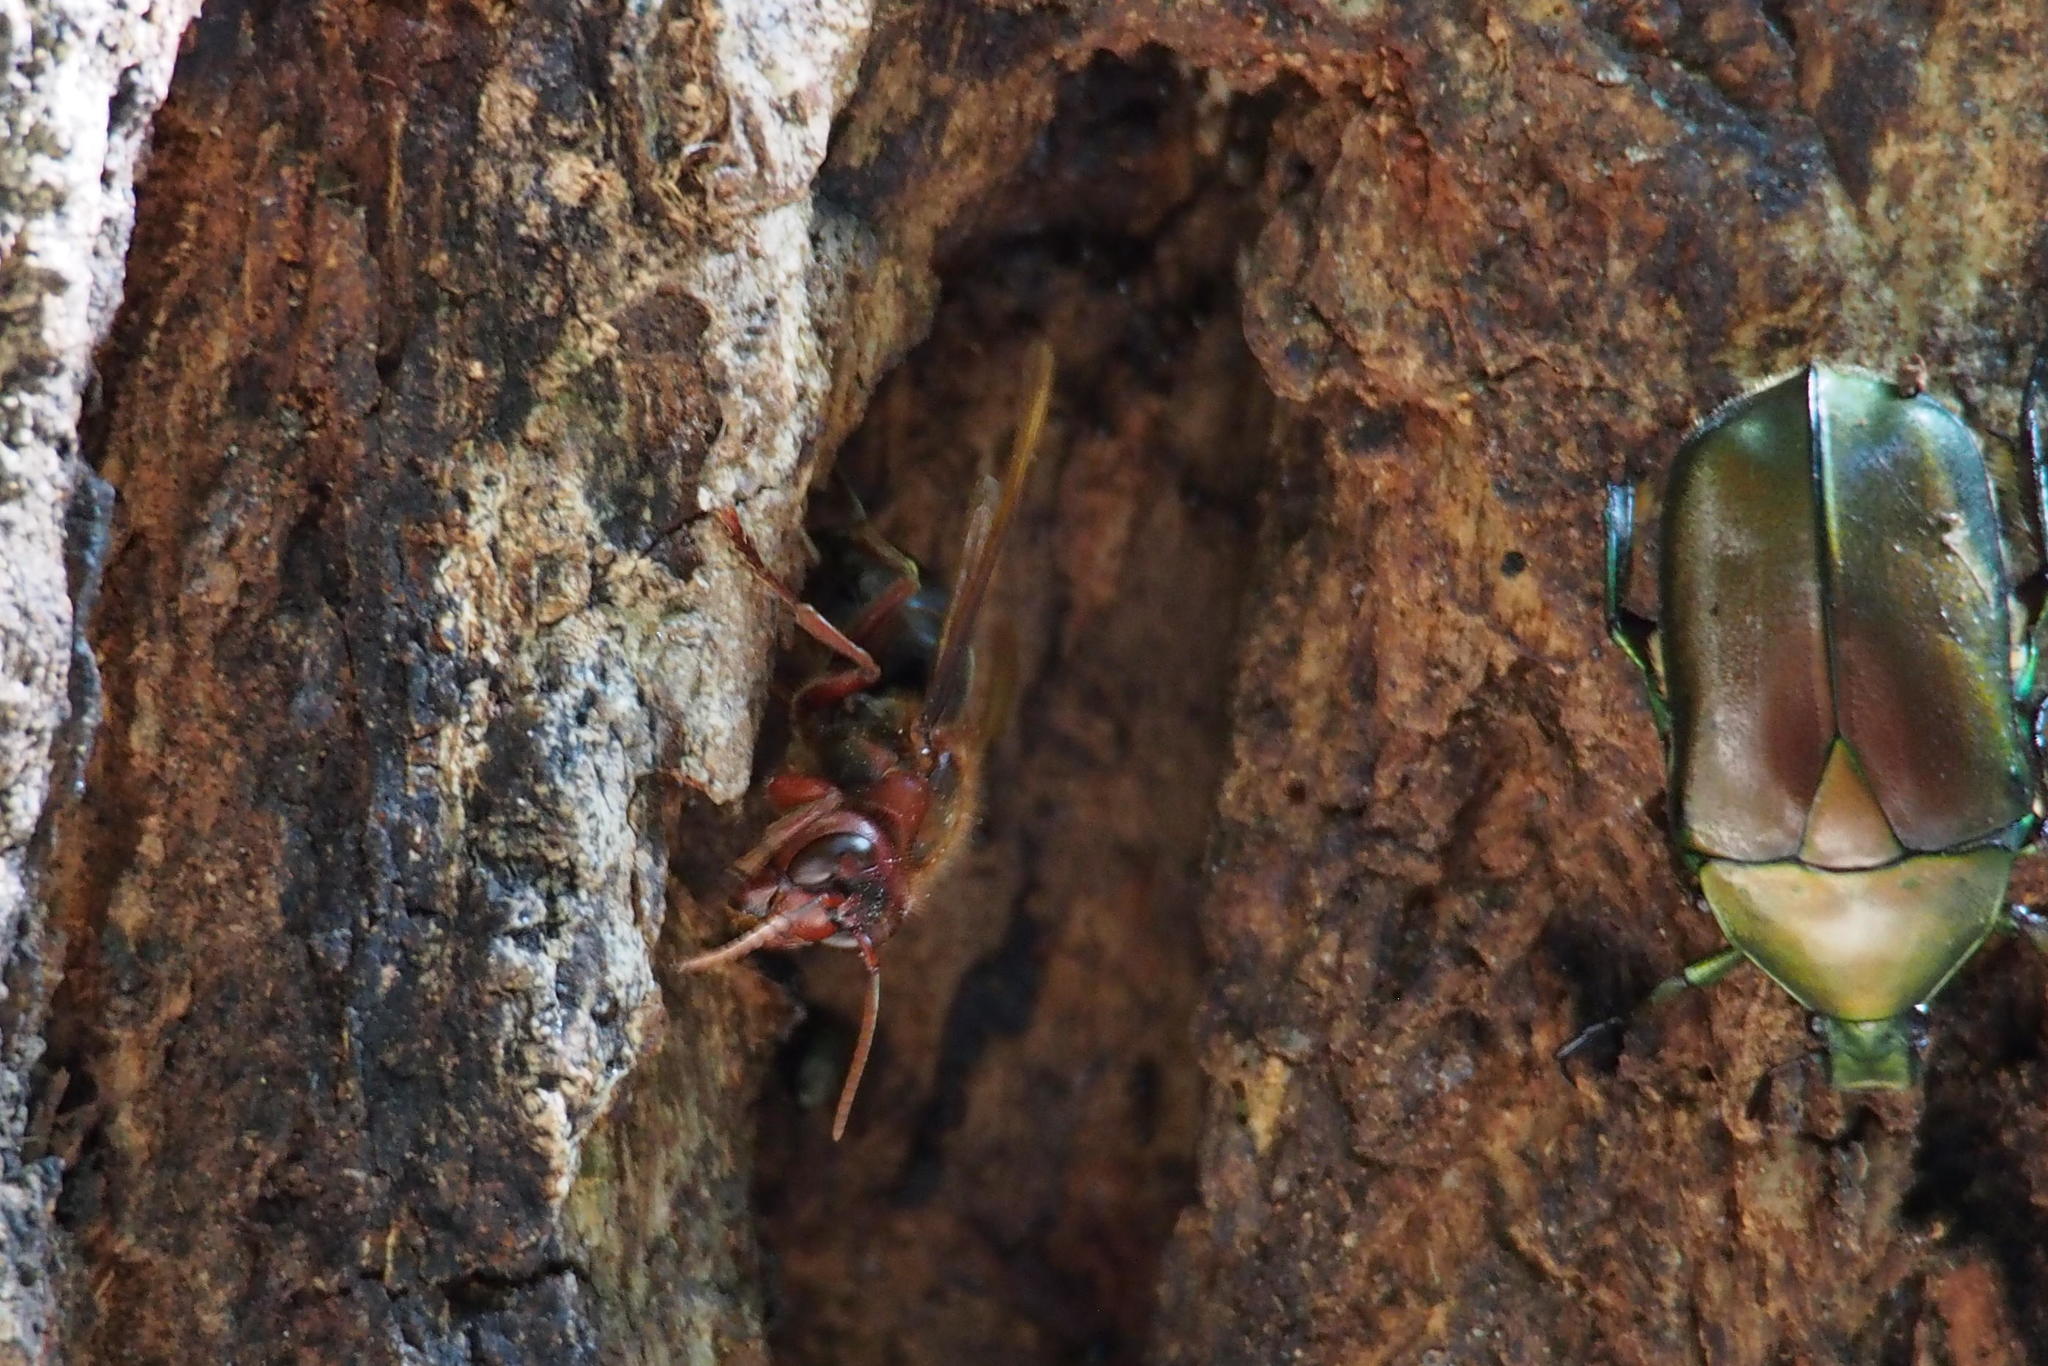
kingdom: Animalia
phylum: Arthropoda
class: Insecta
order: Hymenoptera
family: Vespidae
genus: Vespa
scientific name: Vespa dybowskii
